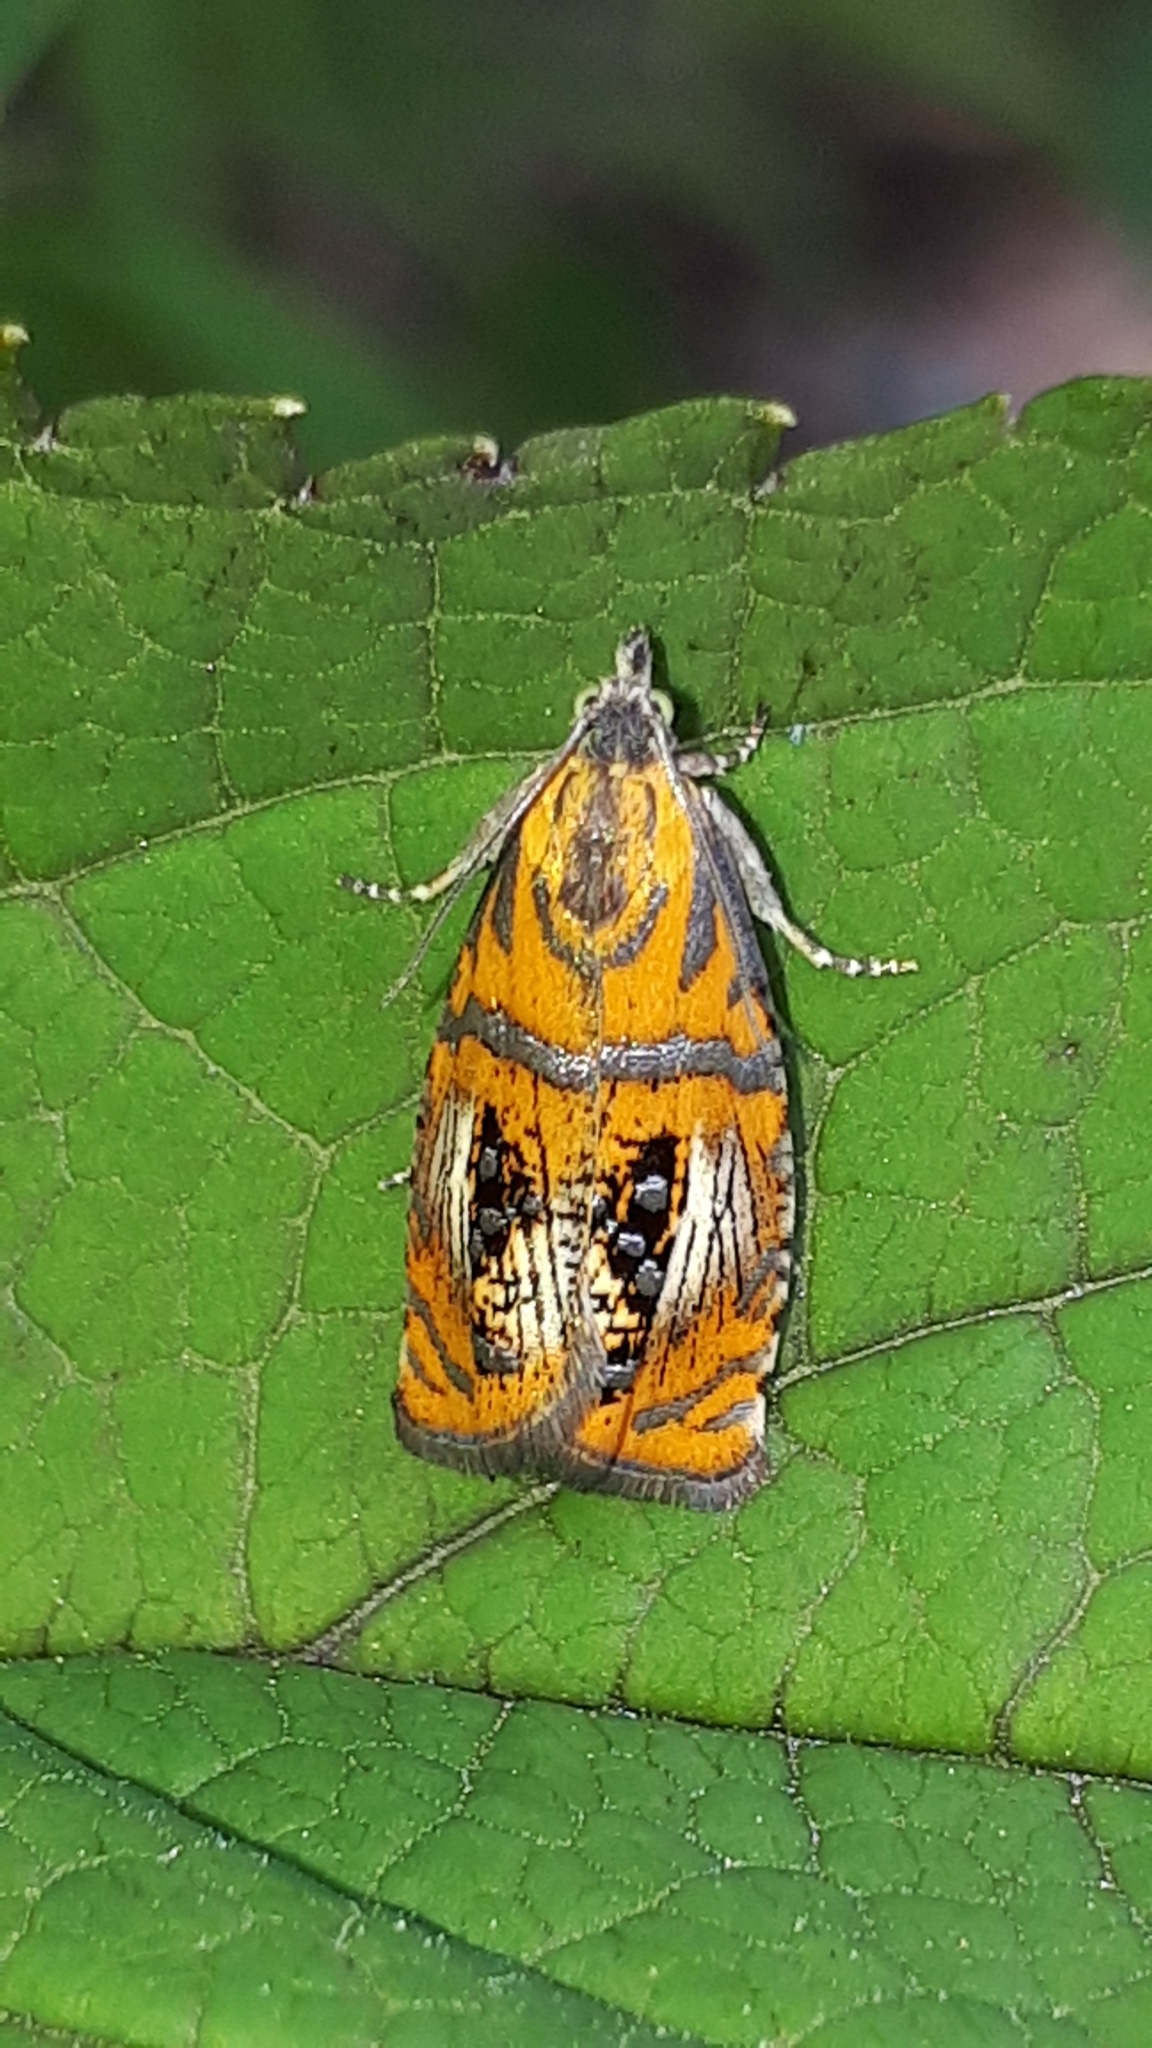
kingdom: Animalia
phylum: Arthropoda
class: Insecta
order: Lepidoptera
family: Tortricidae
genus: Olethreutes
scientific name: Olethreutes arcuella
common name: Arched marble
